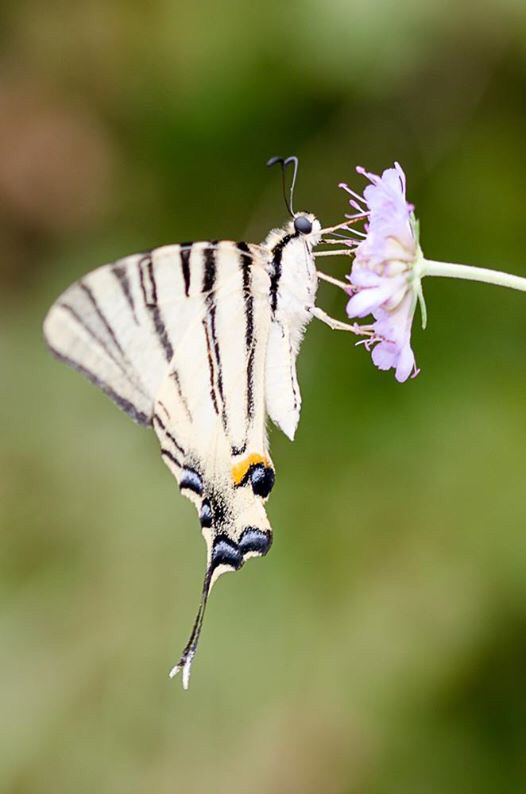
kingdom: Animalia
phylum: Arthropoda
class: Insecta
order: Lepidoptera
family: Papilionidae
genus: Iphiclides
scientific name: Iphiclides podalirius
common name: Scarce swallowtail
